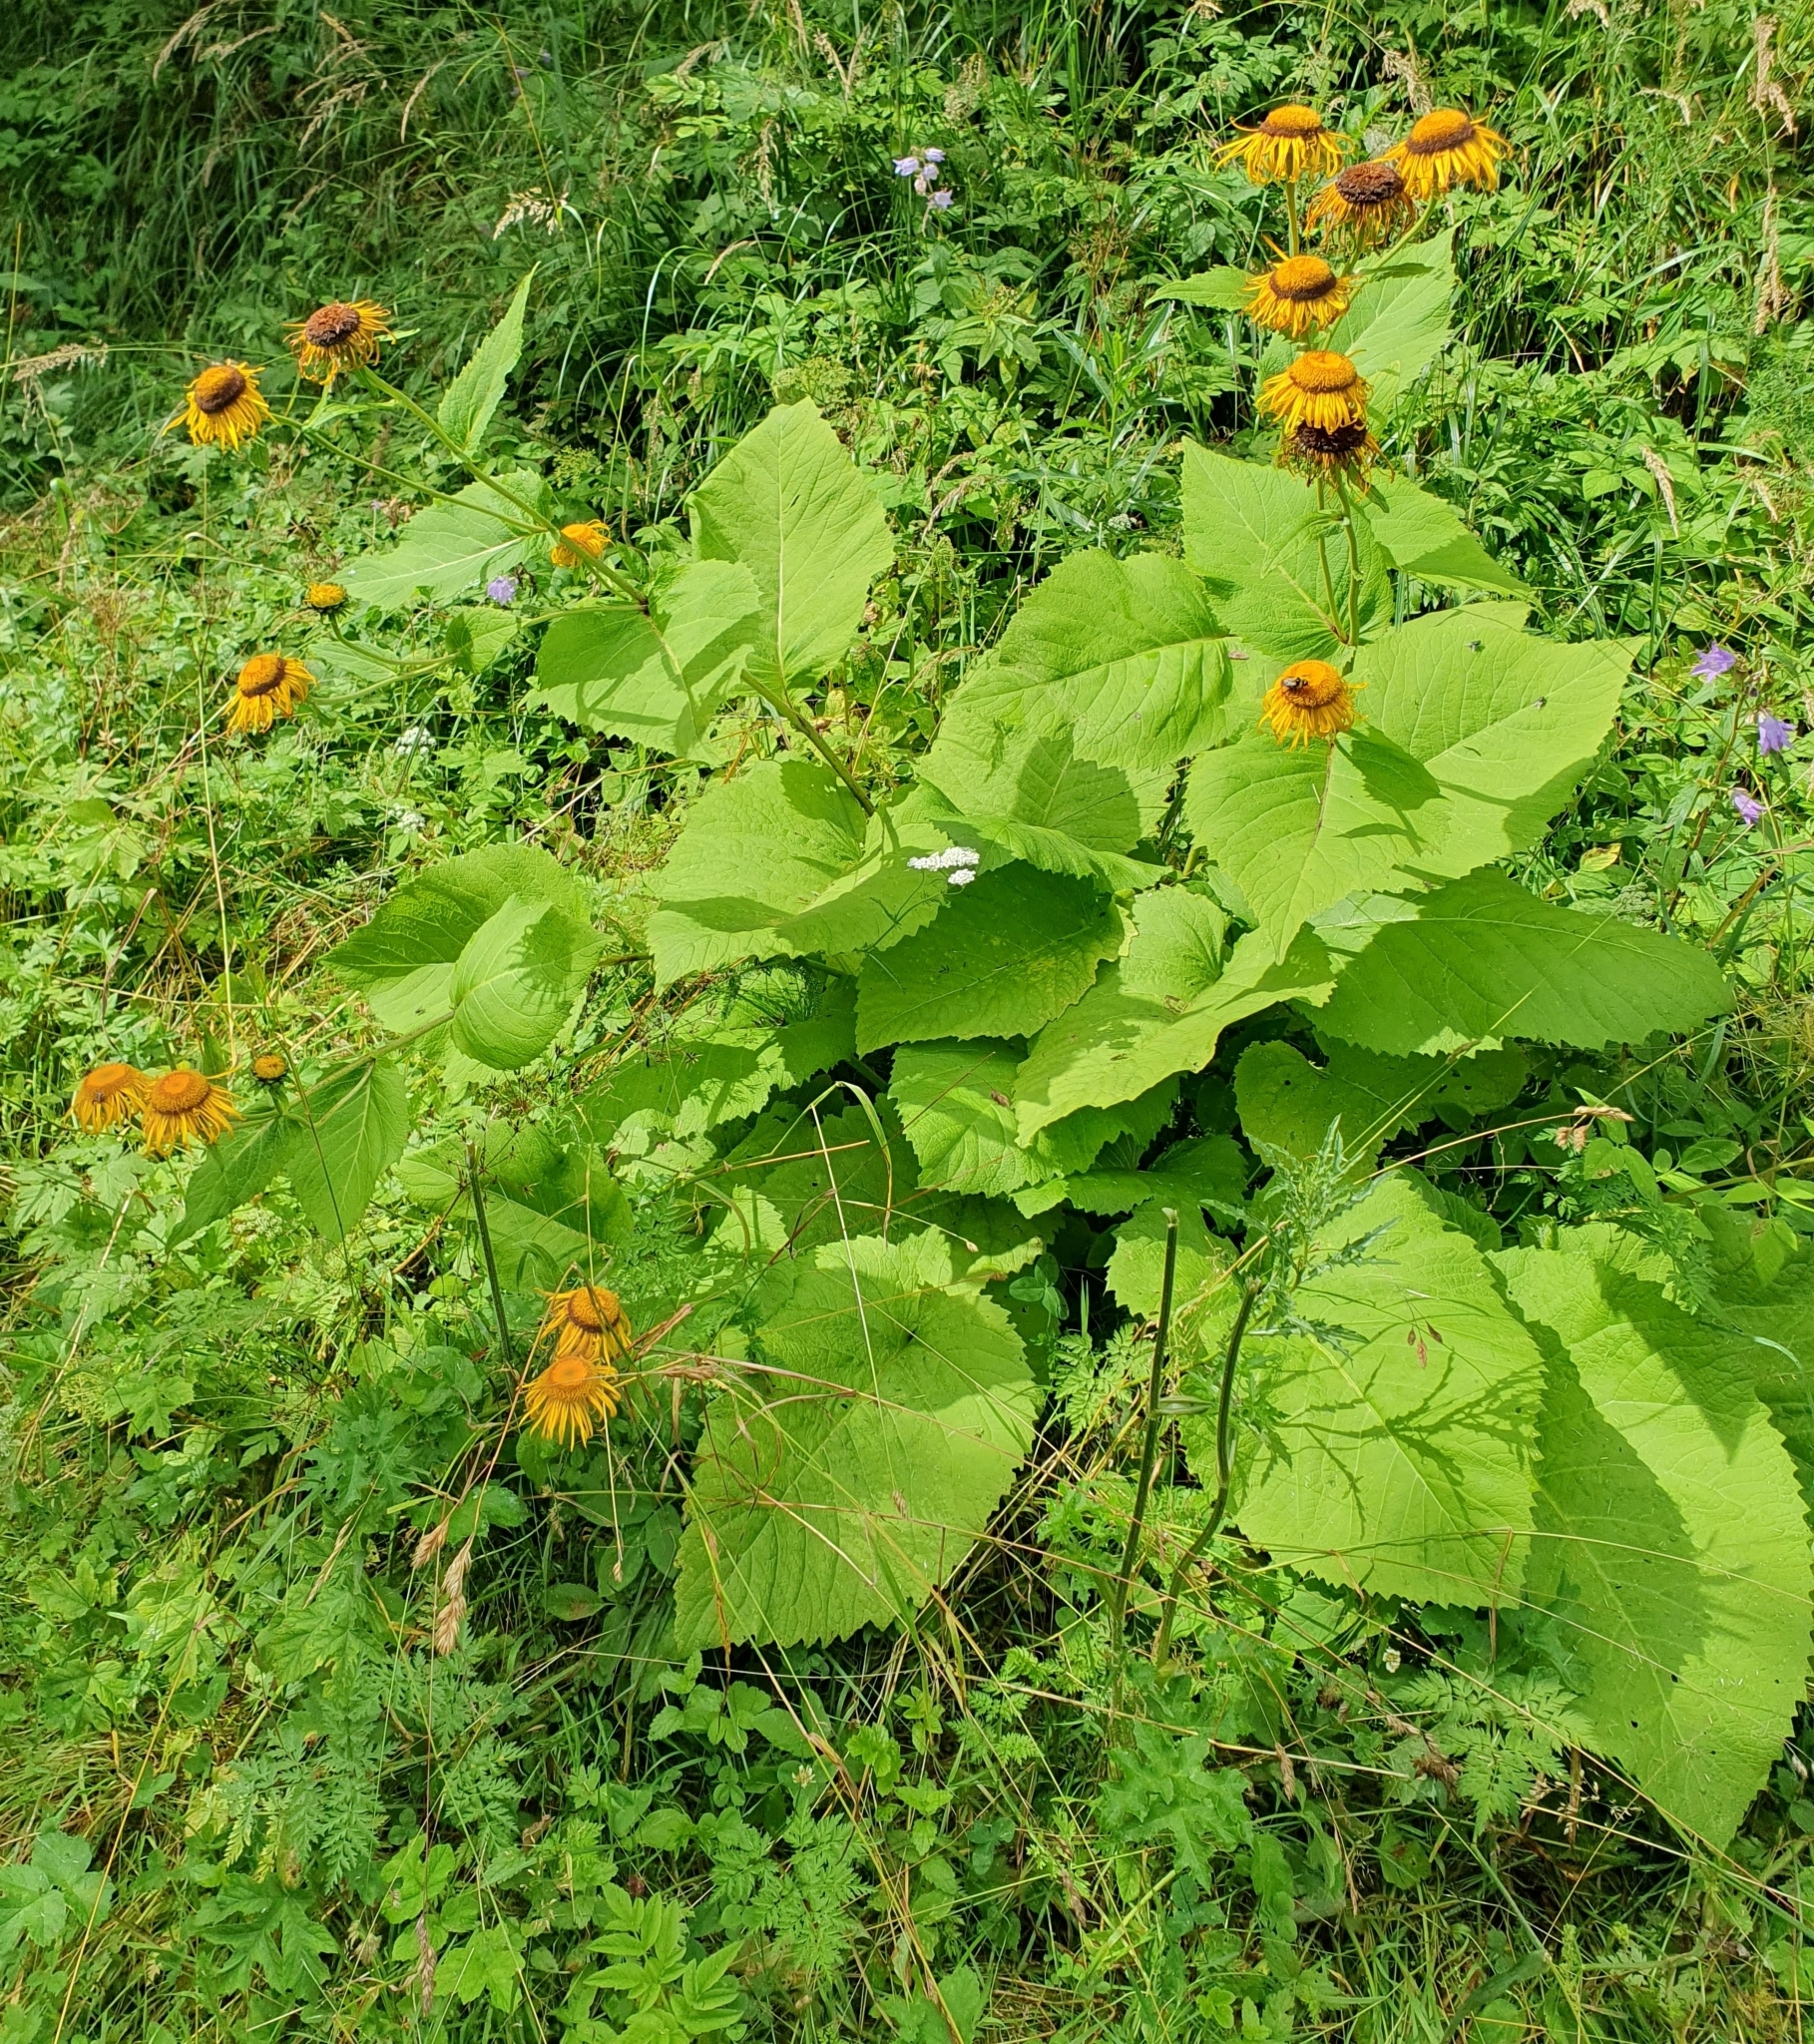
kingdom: Plantae
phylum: Tracheophyta
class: Magnoliopsida
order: Asterales
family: Asteraceae
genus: Telekia
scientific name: Telekia speciosa
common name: Yellow oxeye
